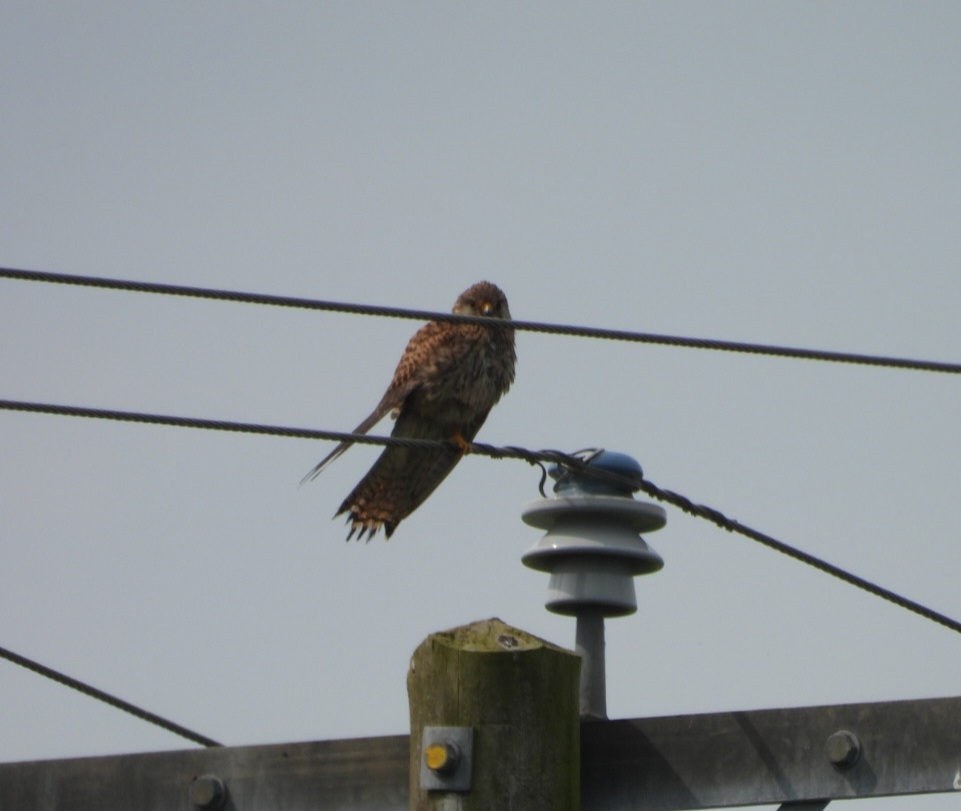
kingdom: Animalia
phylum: Chordata
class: Aves
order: Falconiformes
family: Falconidae
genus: Falco
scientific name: Falco tinnunculus
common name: Common kestrel
